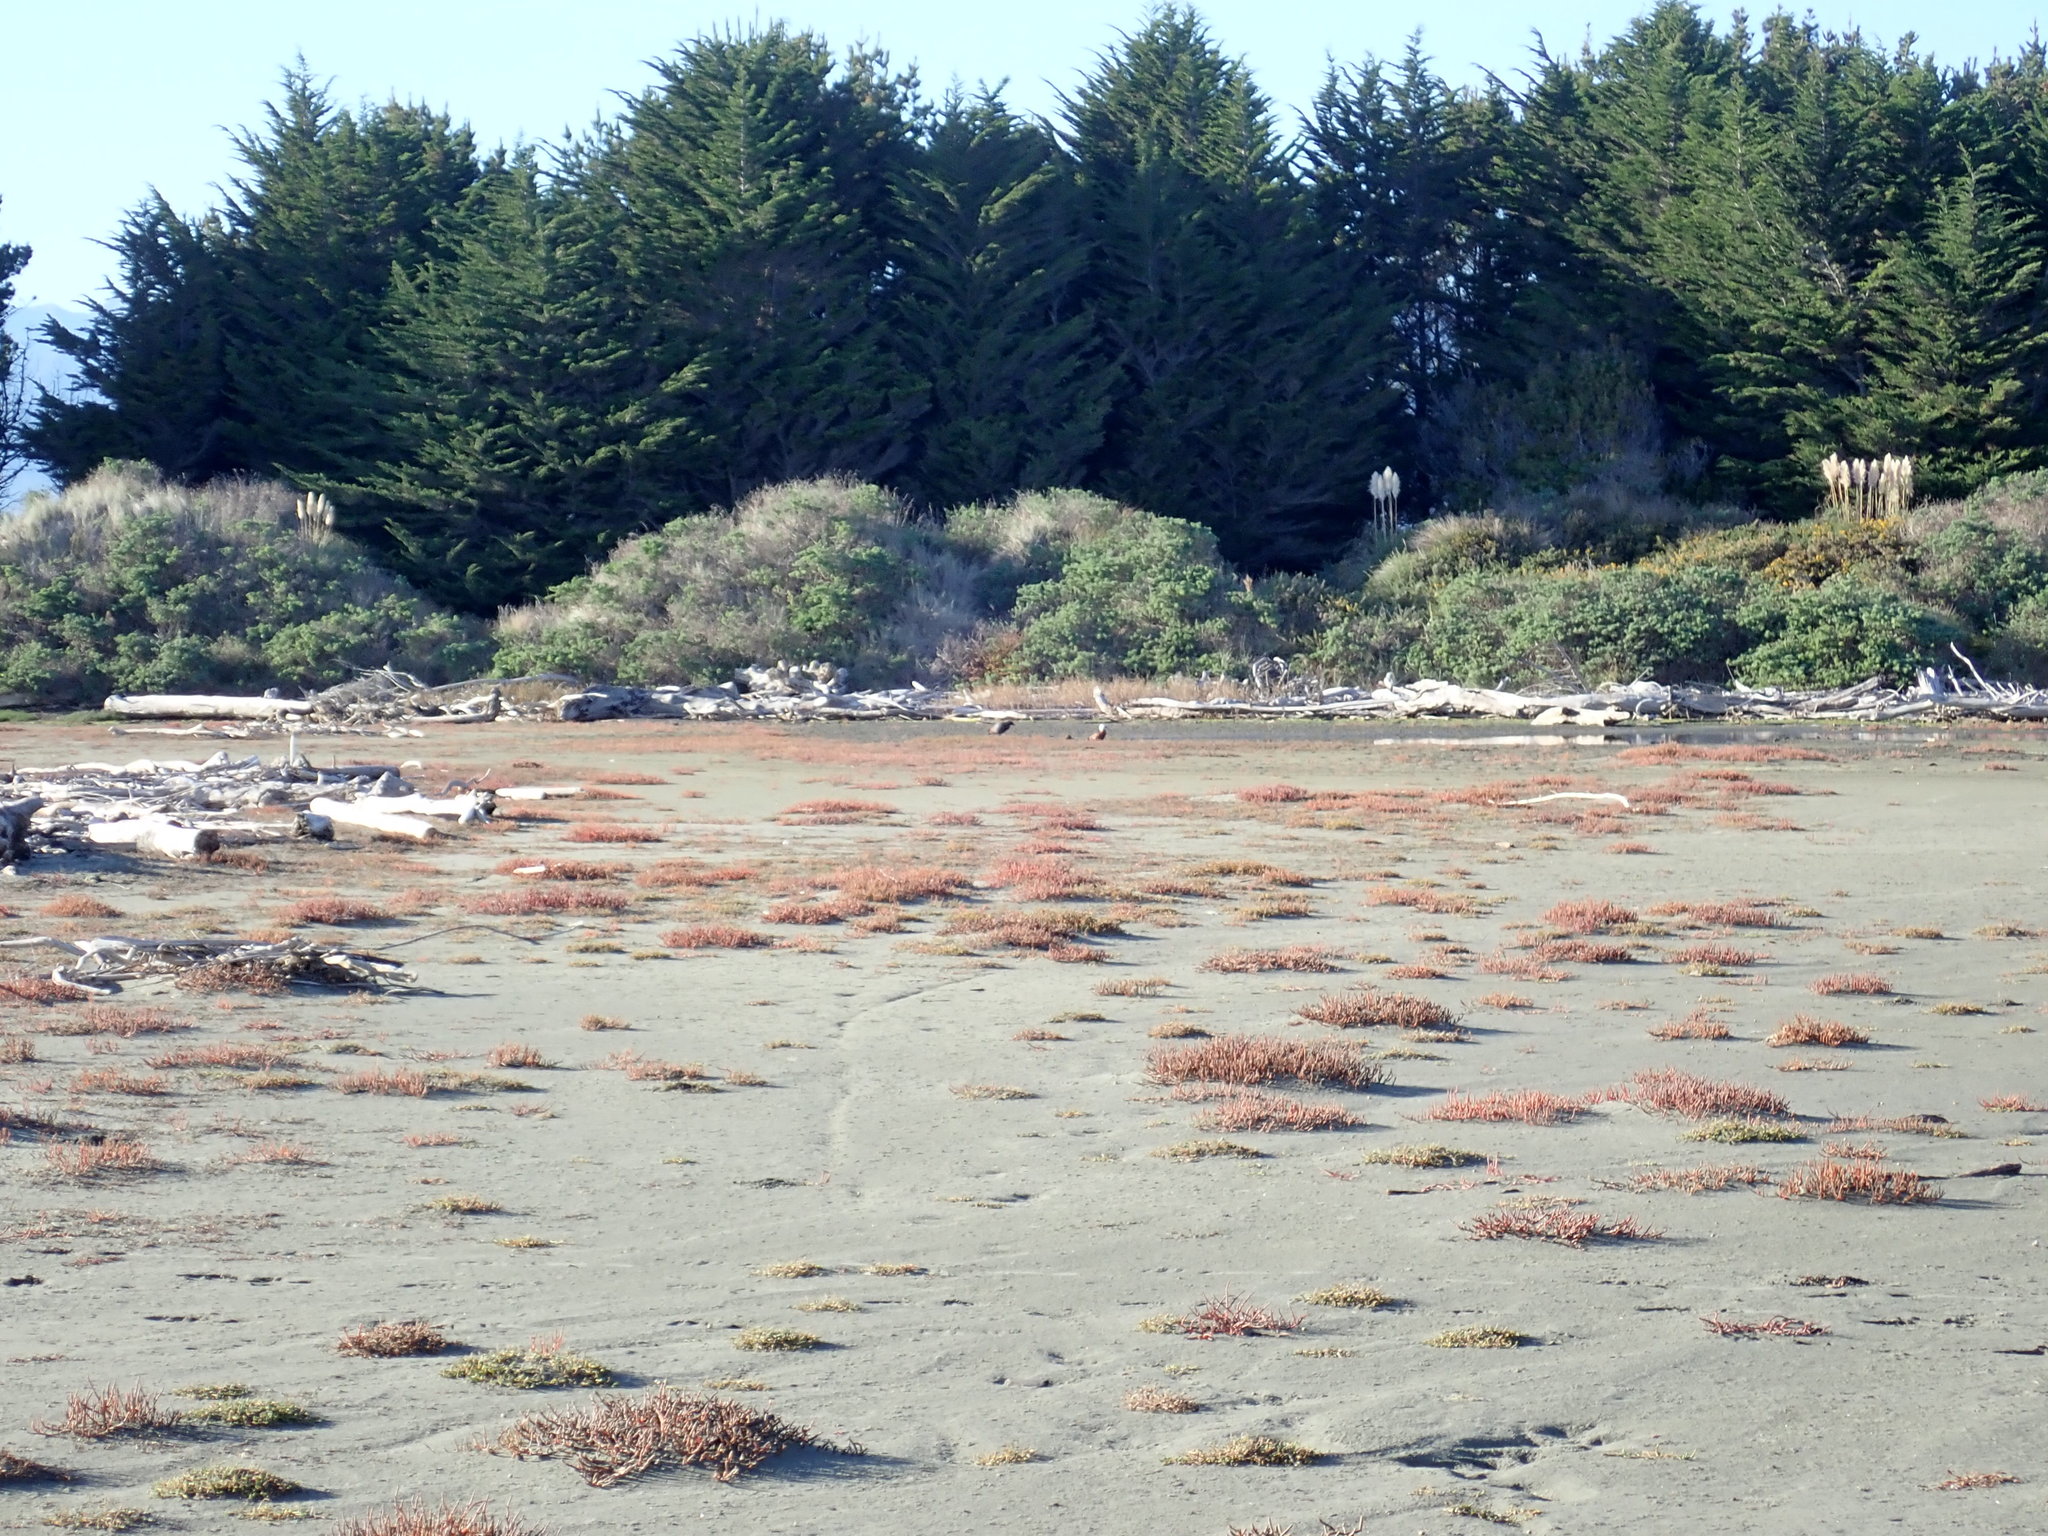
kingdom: Animalia
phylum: Chordata
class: Aves
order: Anseriformes
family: Anatidae
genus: Tadorna
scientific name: Tadorna variegata
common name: Paradise shelduck
